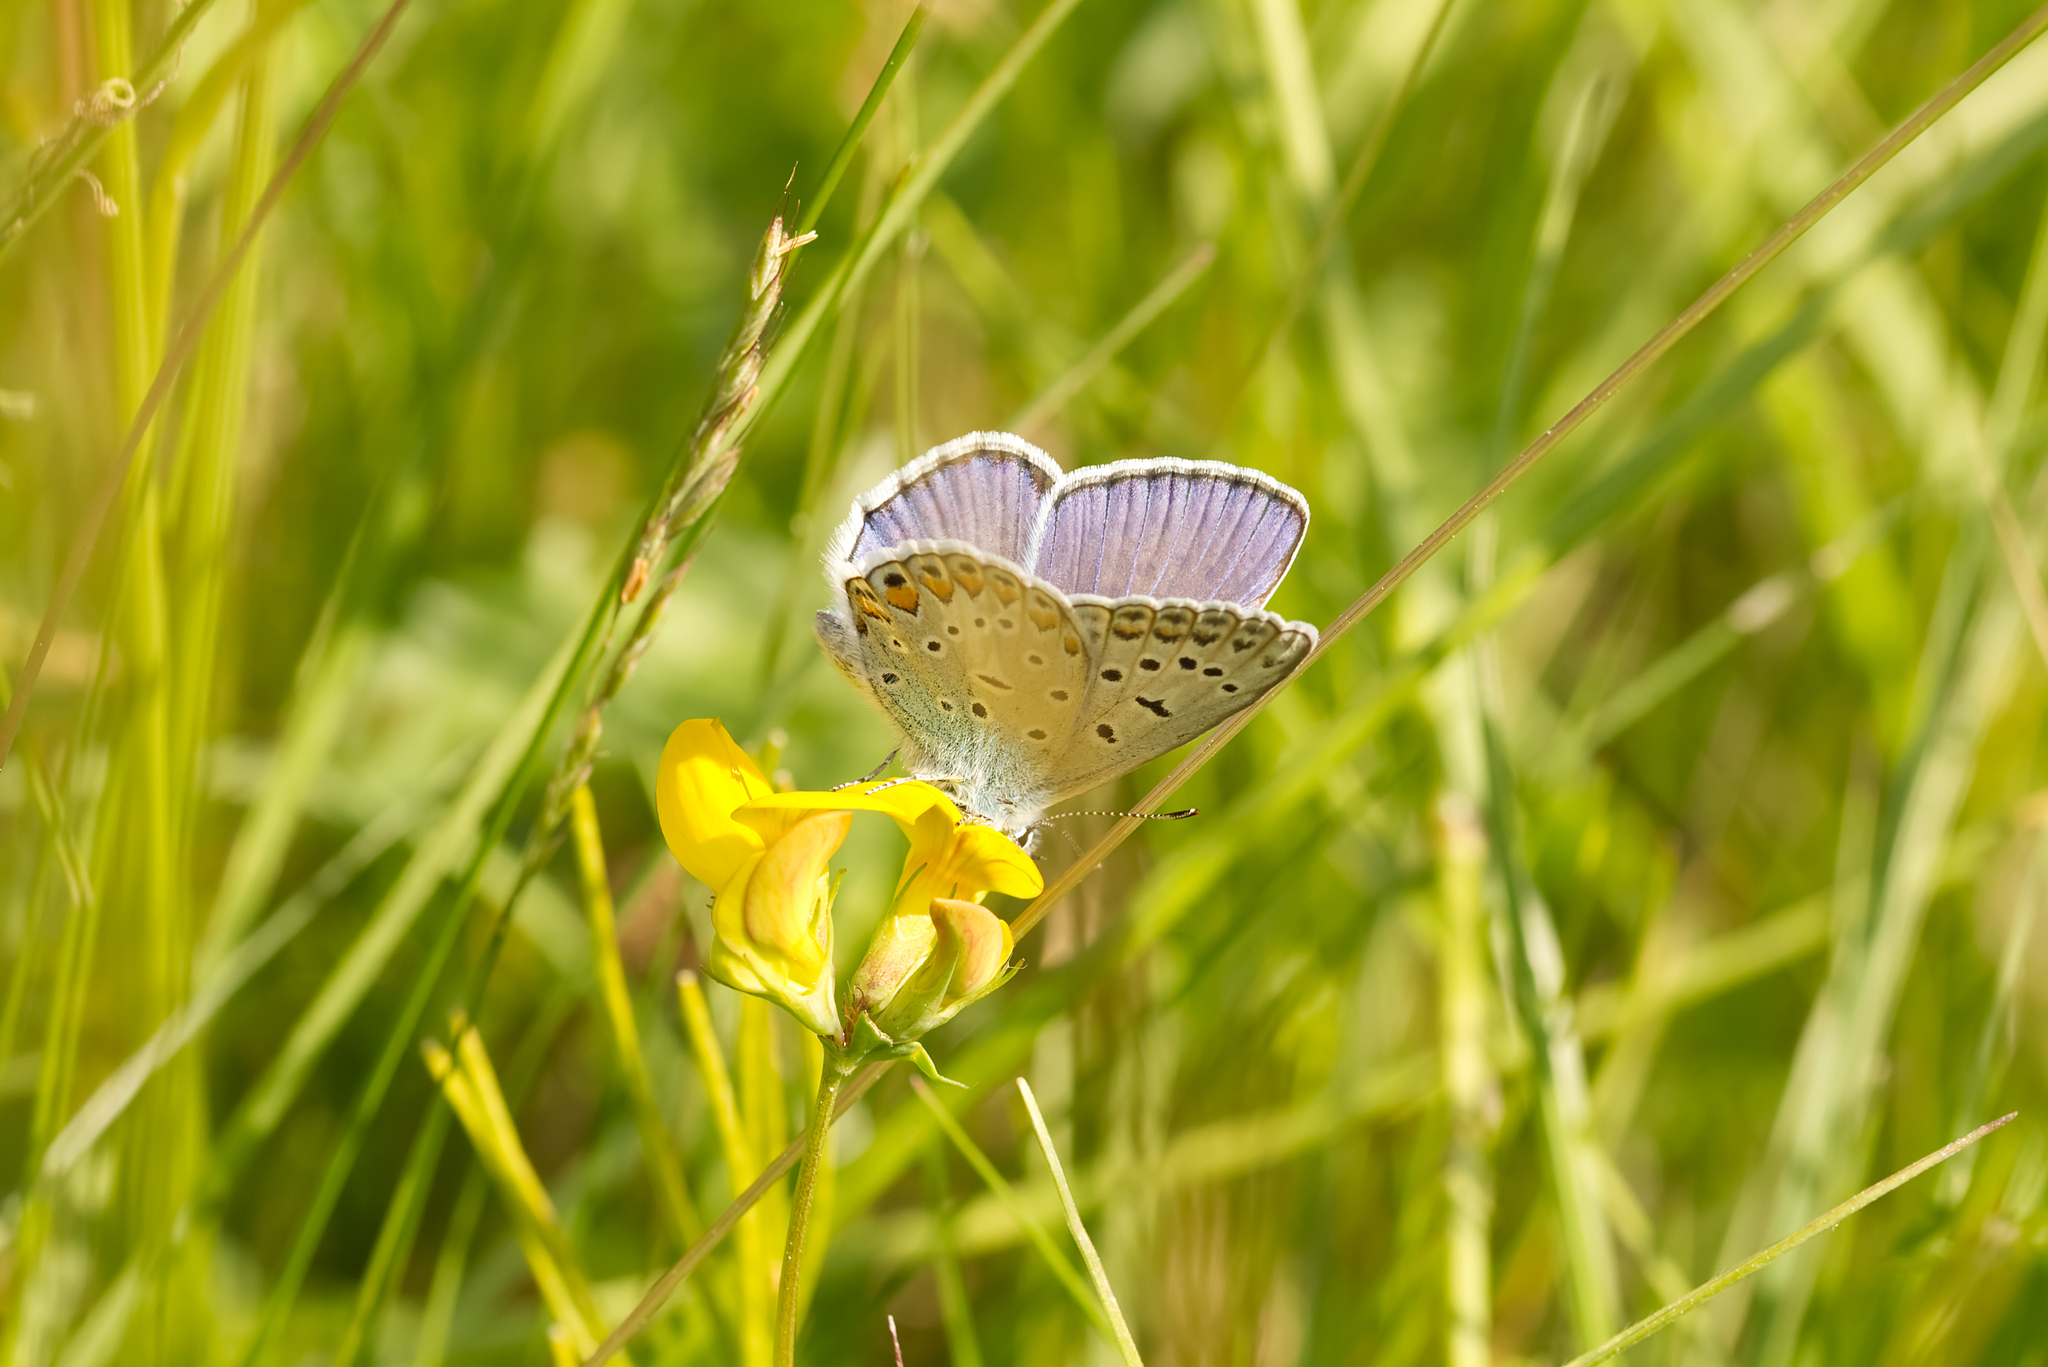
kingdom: Animalia
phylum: Arthropoda
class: Insecta
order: Lepidoptera
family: Lycaenidae
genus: Polyommatus
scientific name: Polyommatus icarus
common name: Common blue
